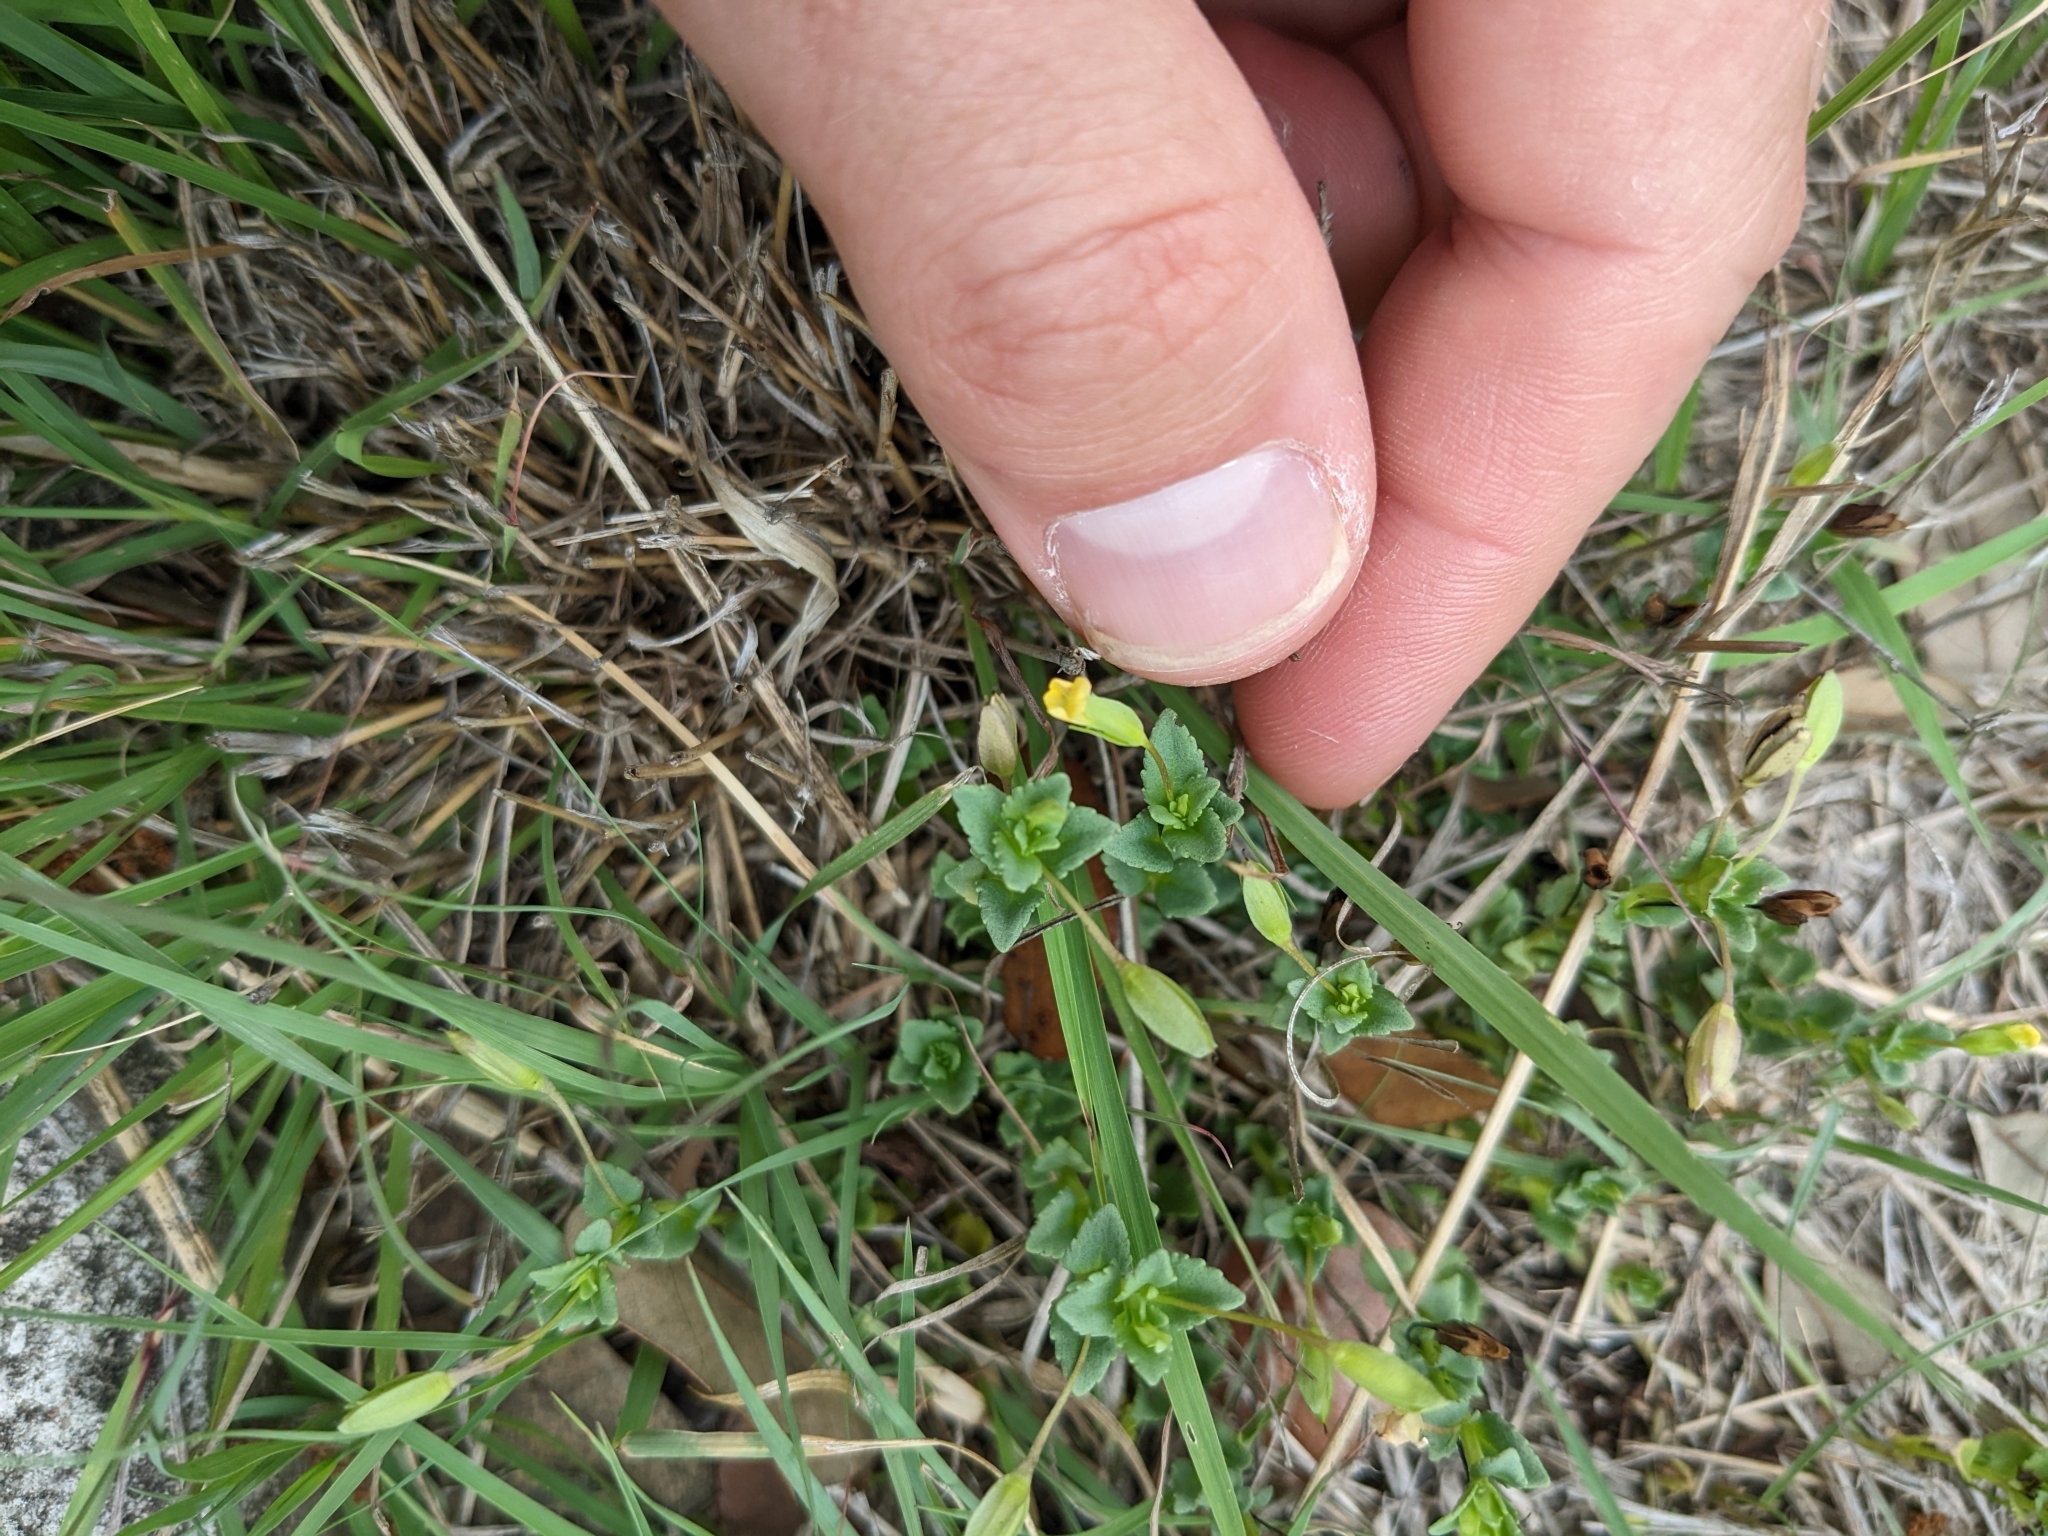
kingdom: Plantae
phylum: Tracheophyta
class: Magnoliopsida
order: Lamiales
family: Plantaginaceae
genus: Mecardonia
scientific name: Mecardonia procumbens
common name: Baby jump-up
